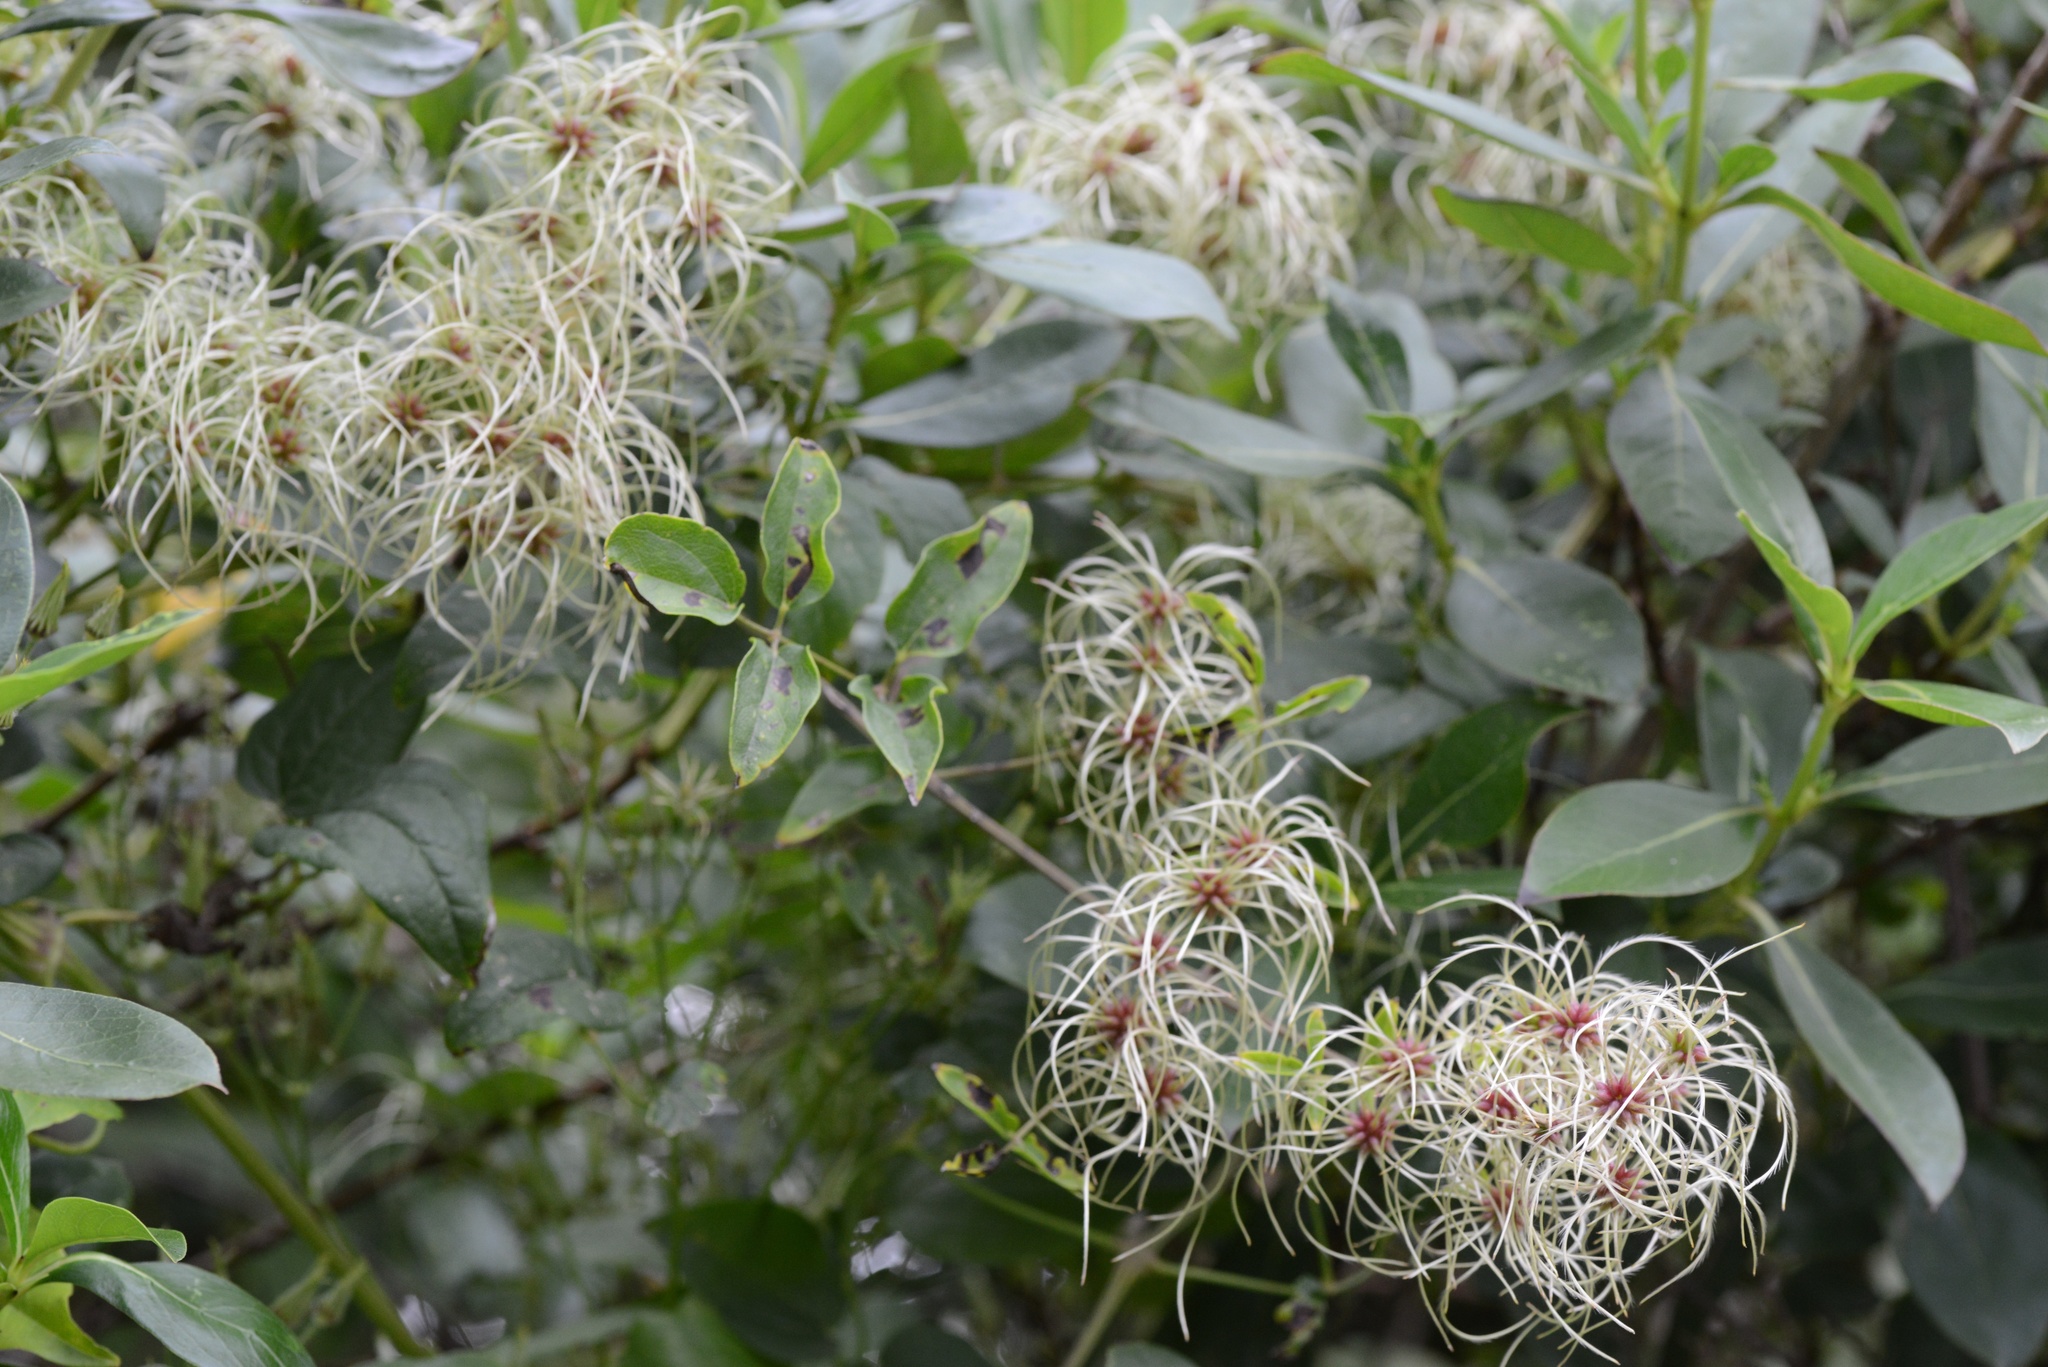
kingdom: Plantae
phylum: Tracheophyta
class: Magnoliopsida
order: Ranunculales
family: Ranunculaceae
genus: Clematis
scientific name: Clematis vitalba
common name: Evergreen clematis
